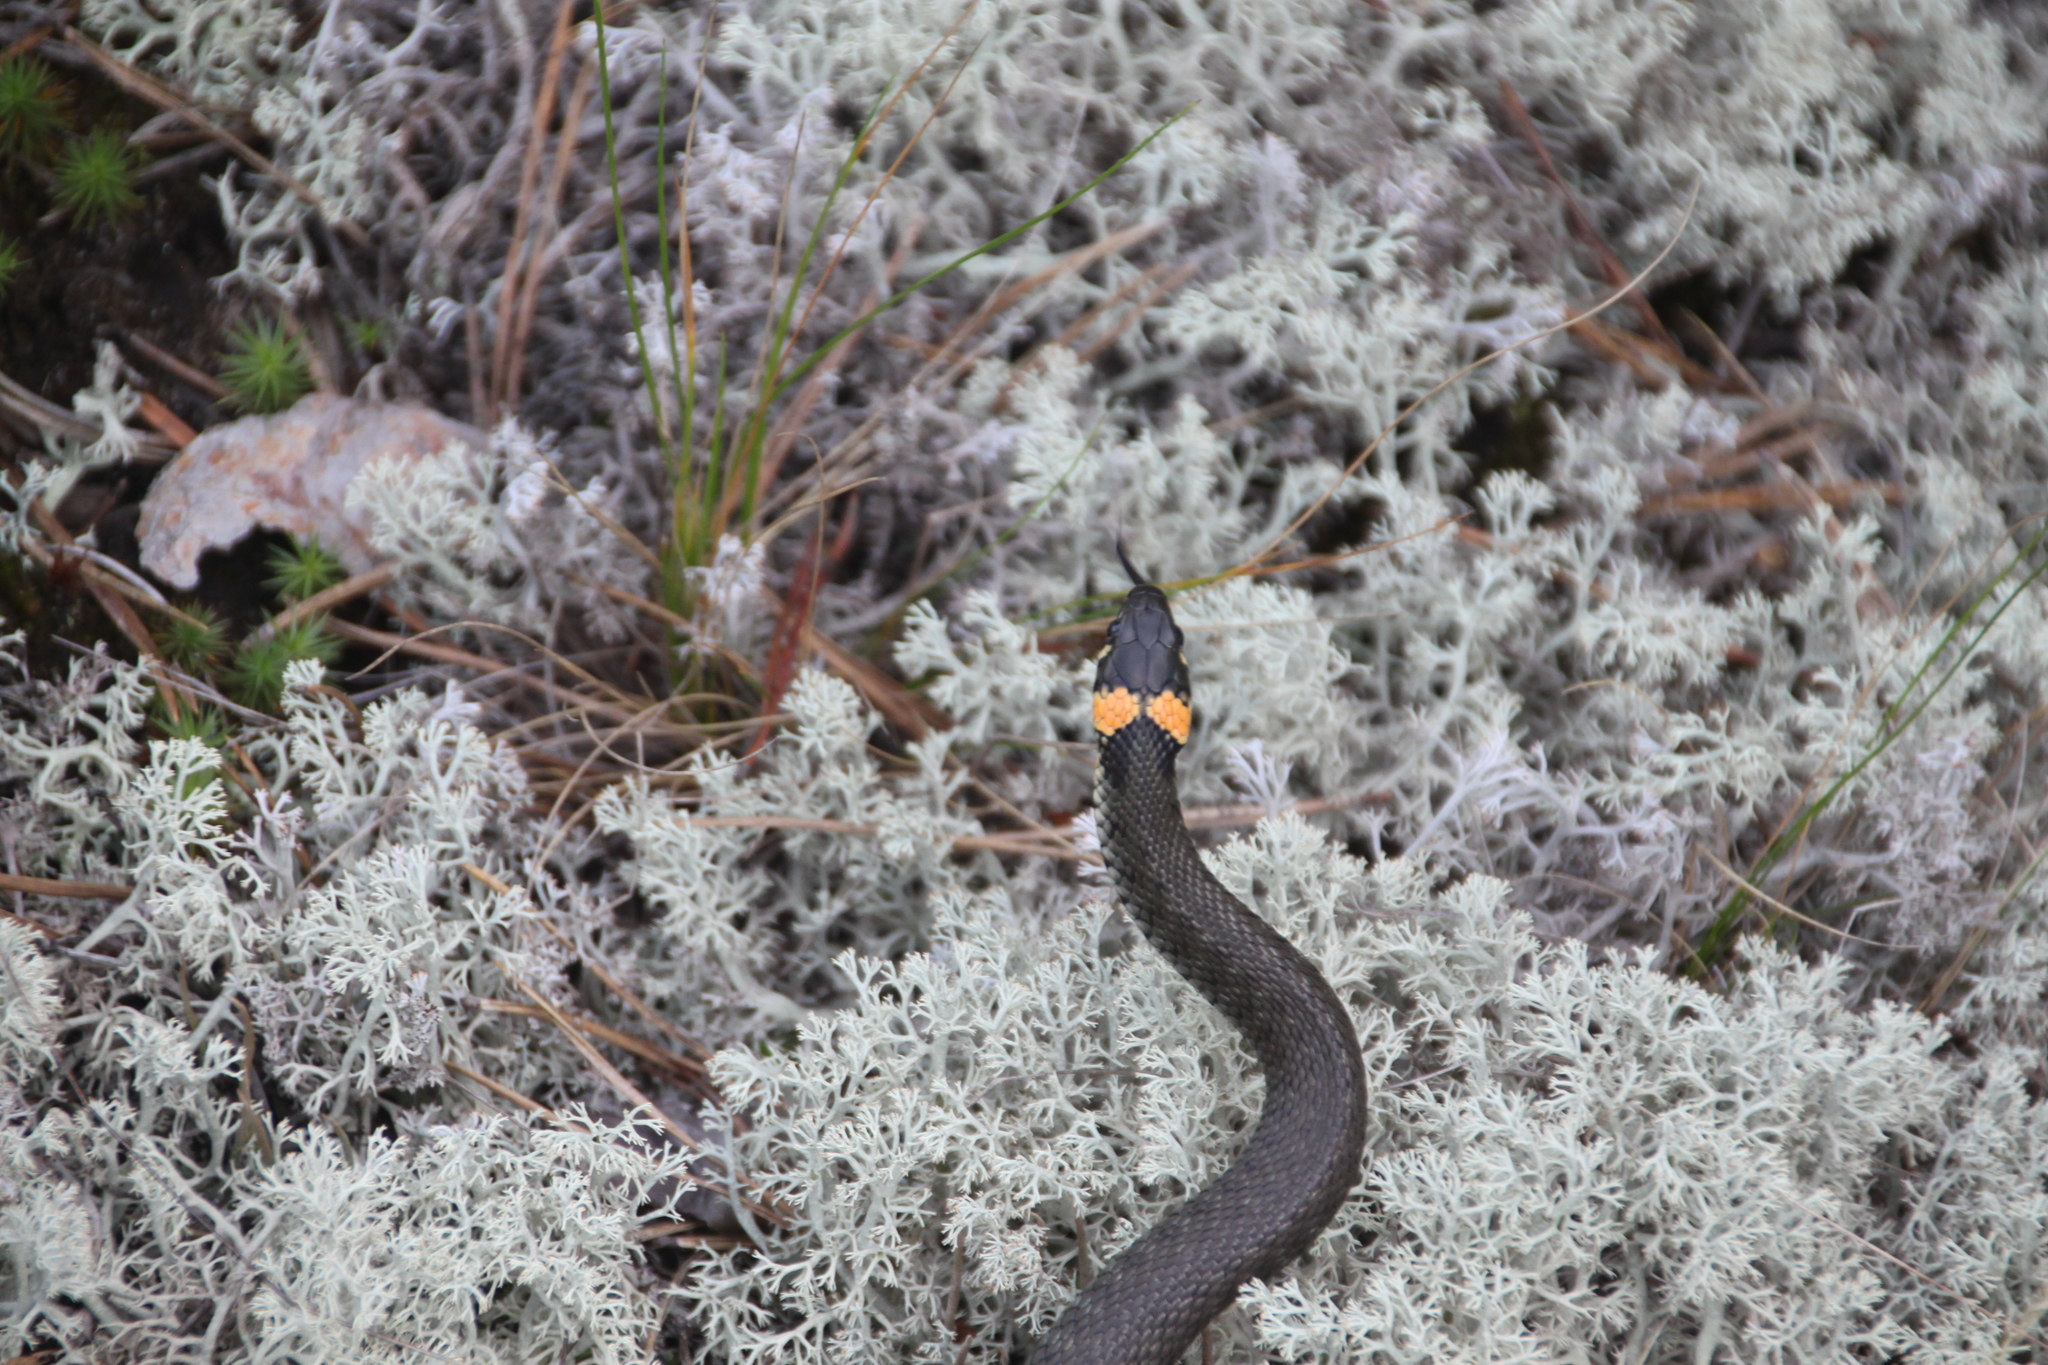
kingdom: Animalia
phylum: Chordata
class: Squamata
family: Colubridae
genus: Natrix
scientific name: Natrix natrix
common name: Grass snake
